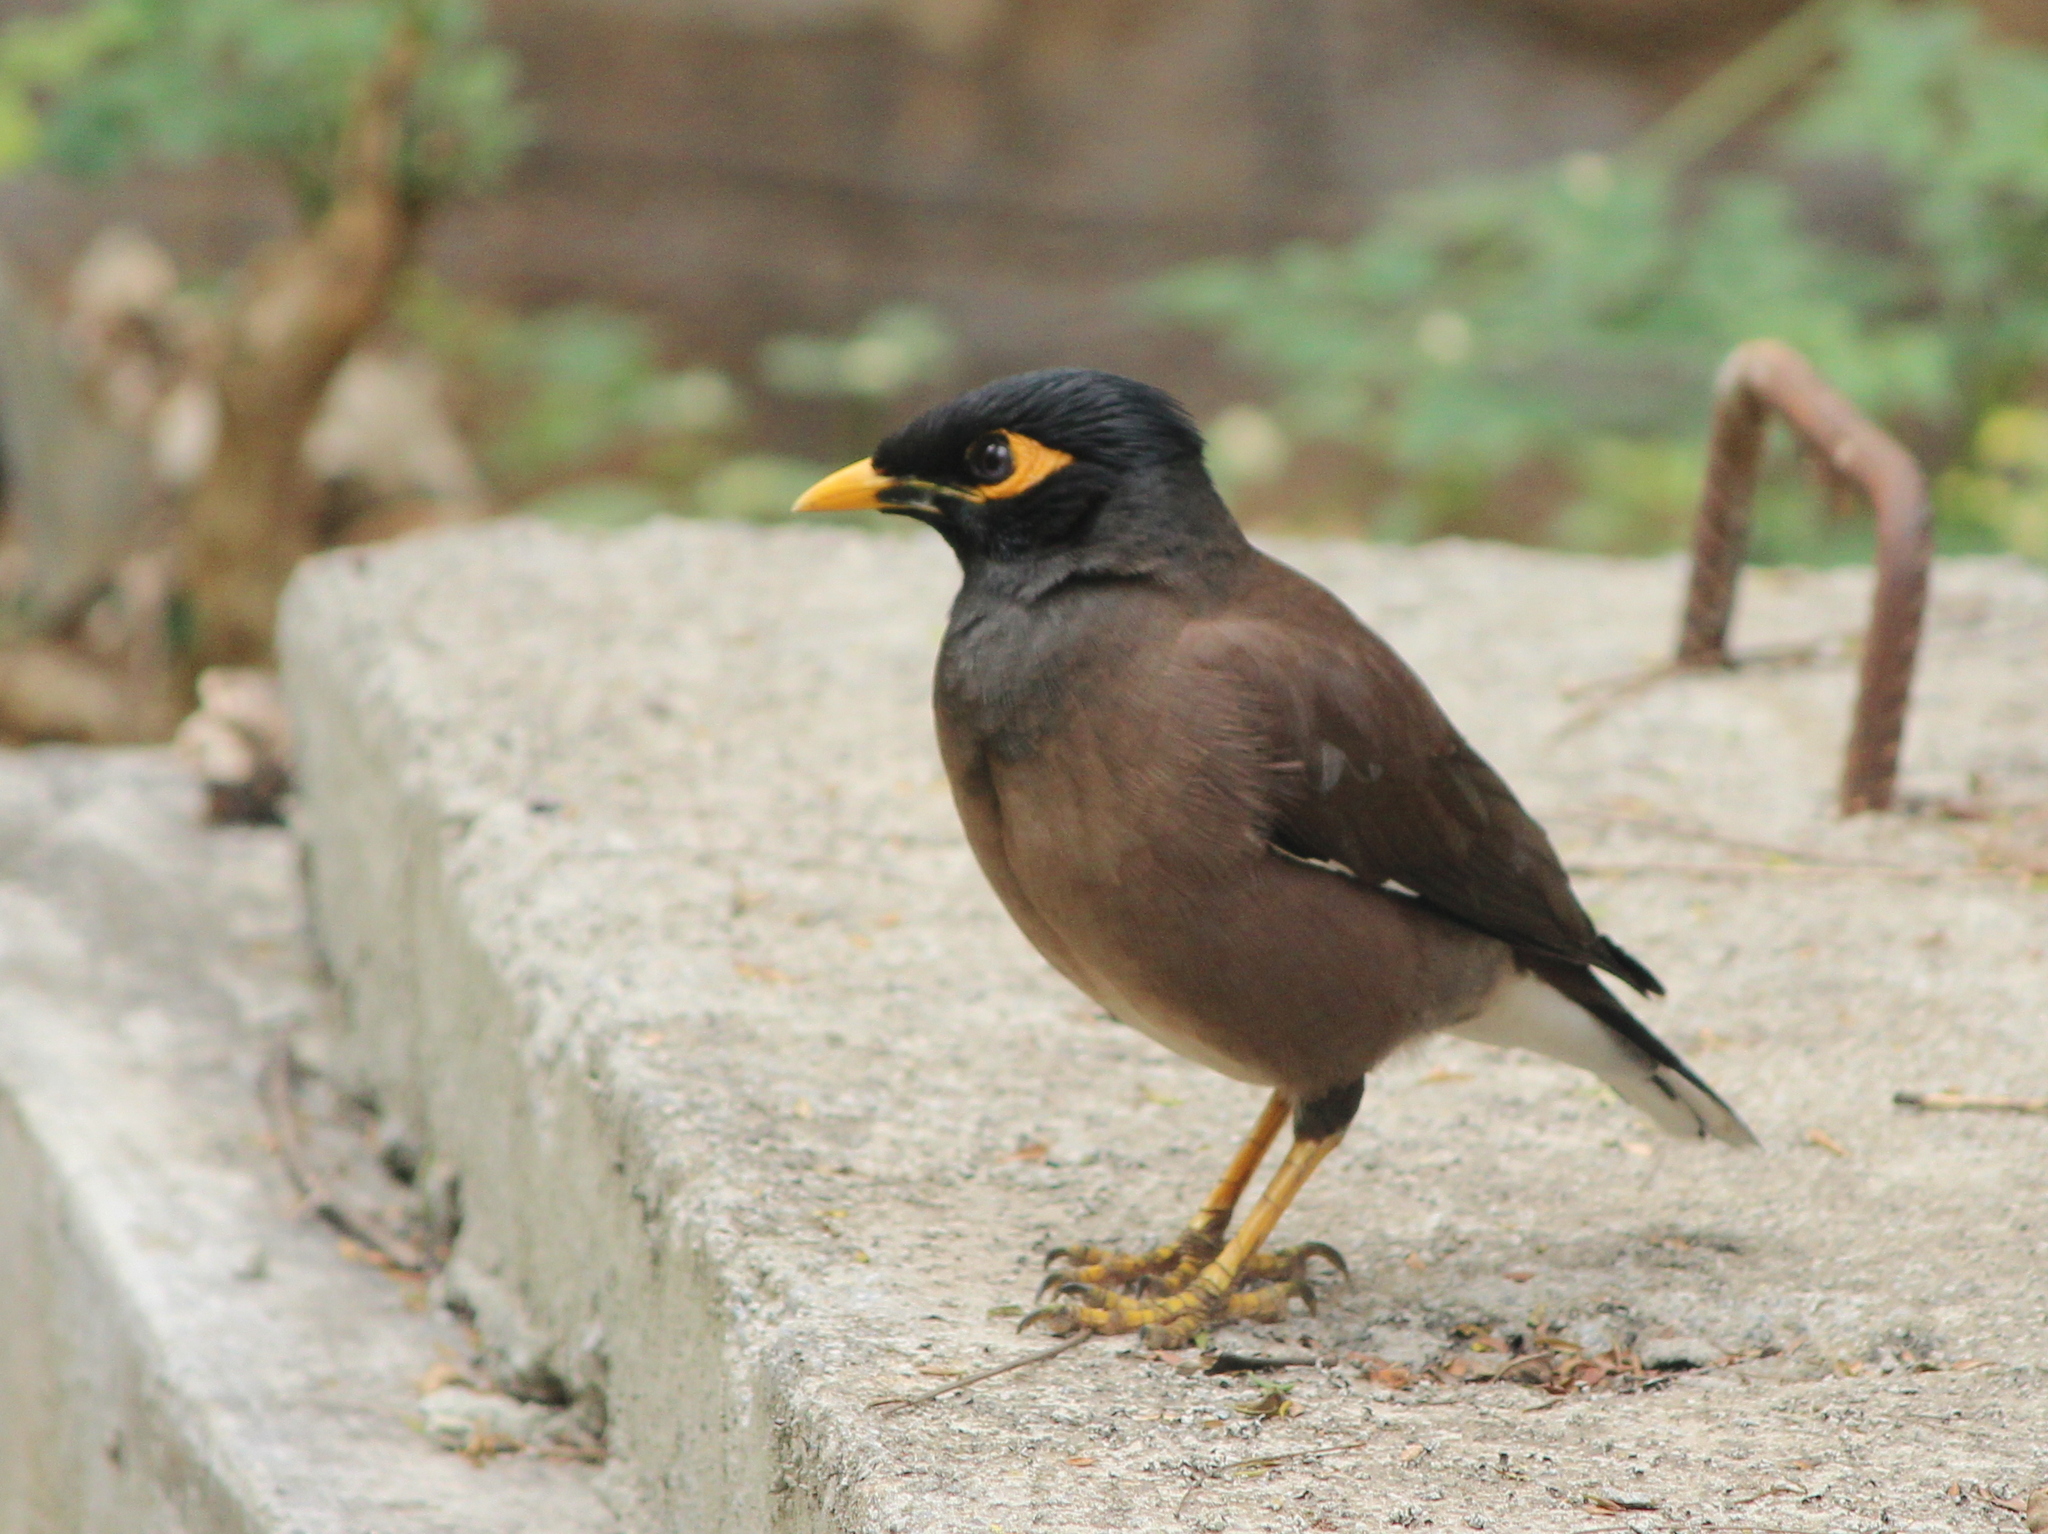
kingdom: Animalia
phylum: Chordata
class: Aves
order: Passeriformes
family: Sturnidae
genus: Acridotheres
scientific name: Acridotheres tristis
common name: Common myna
